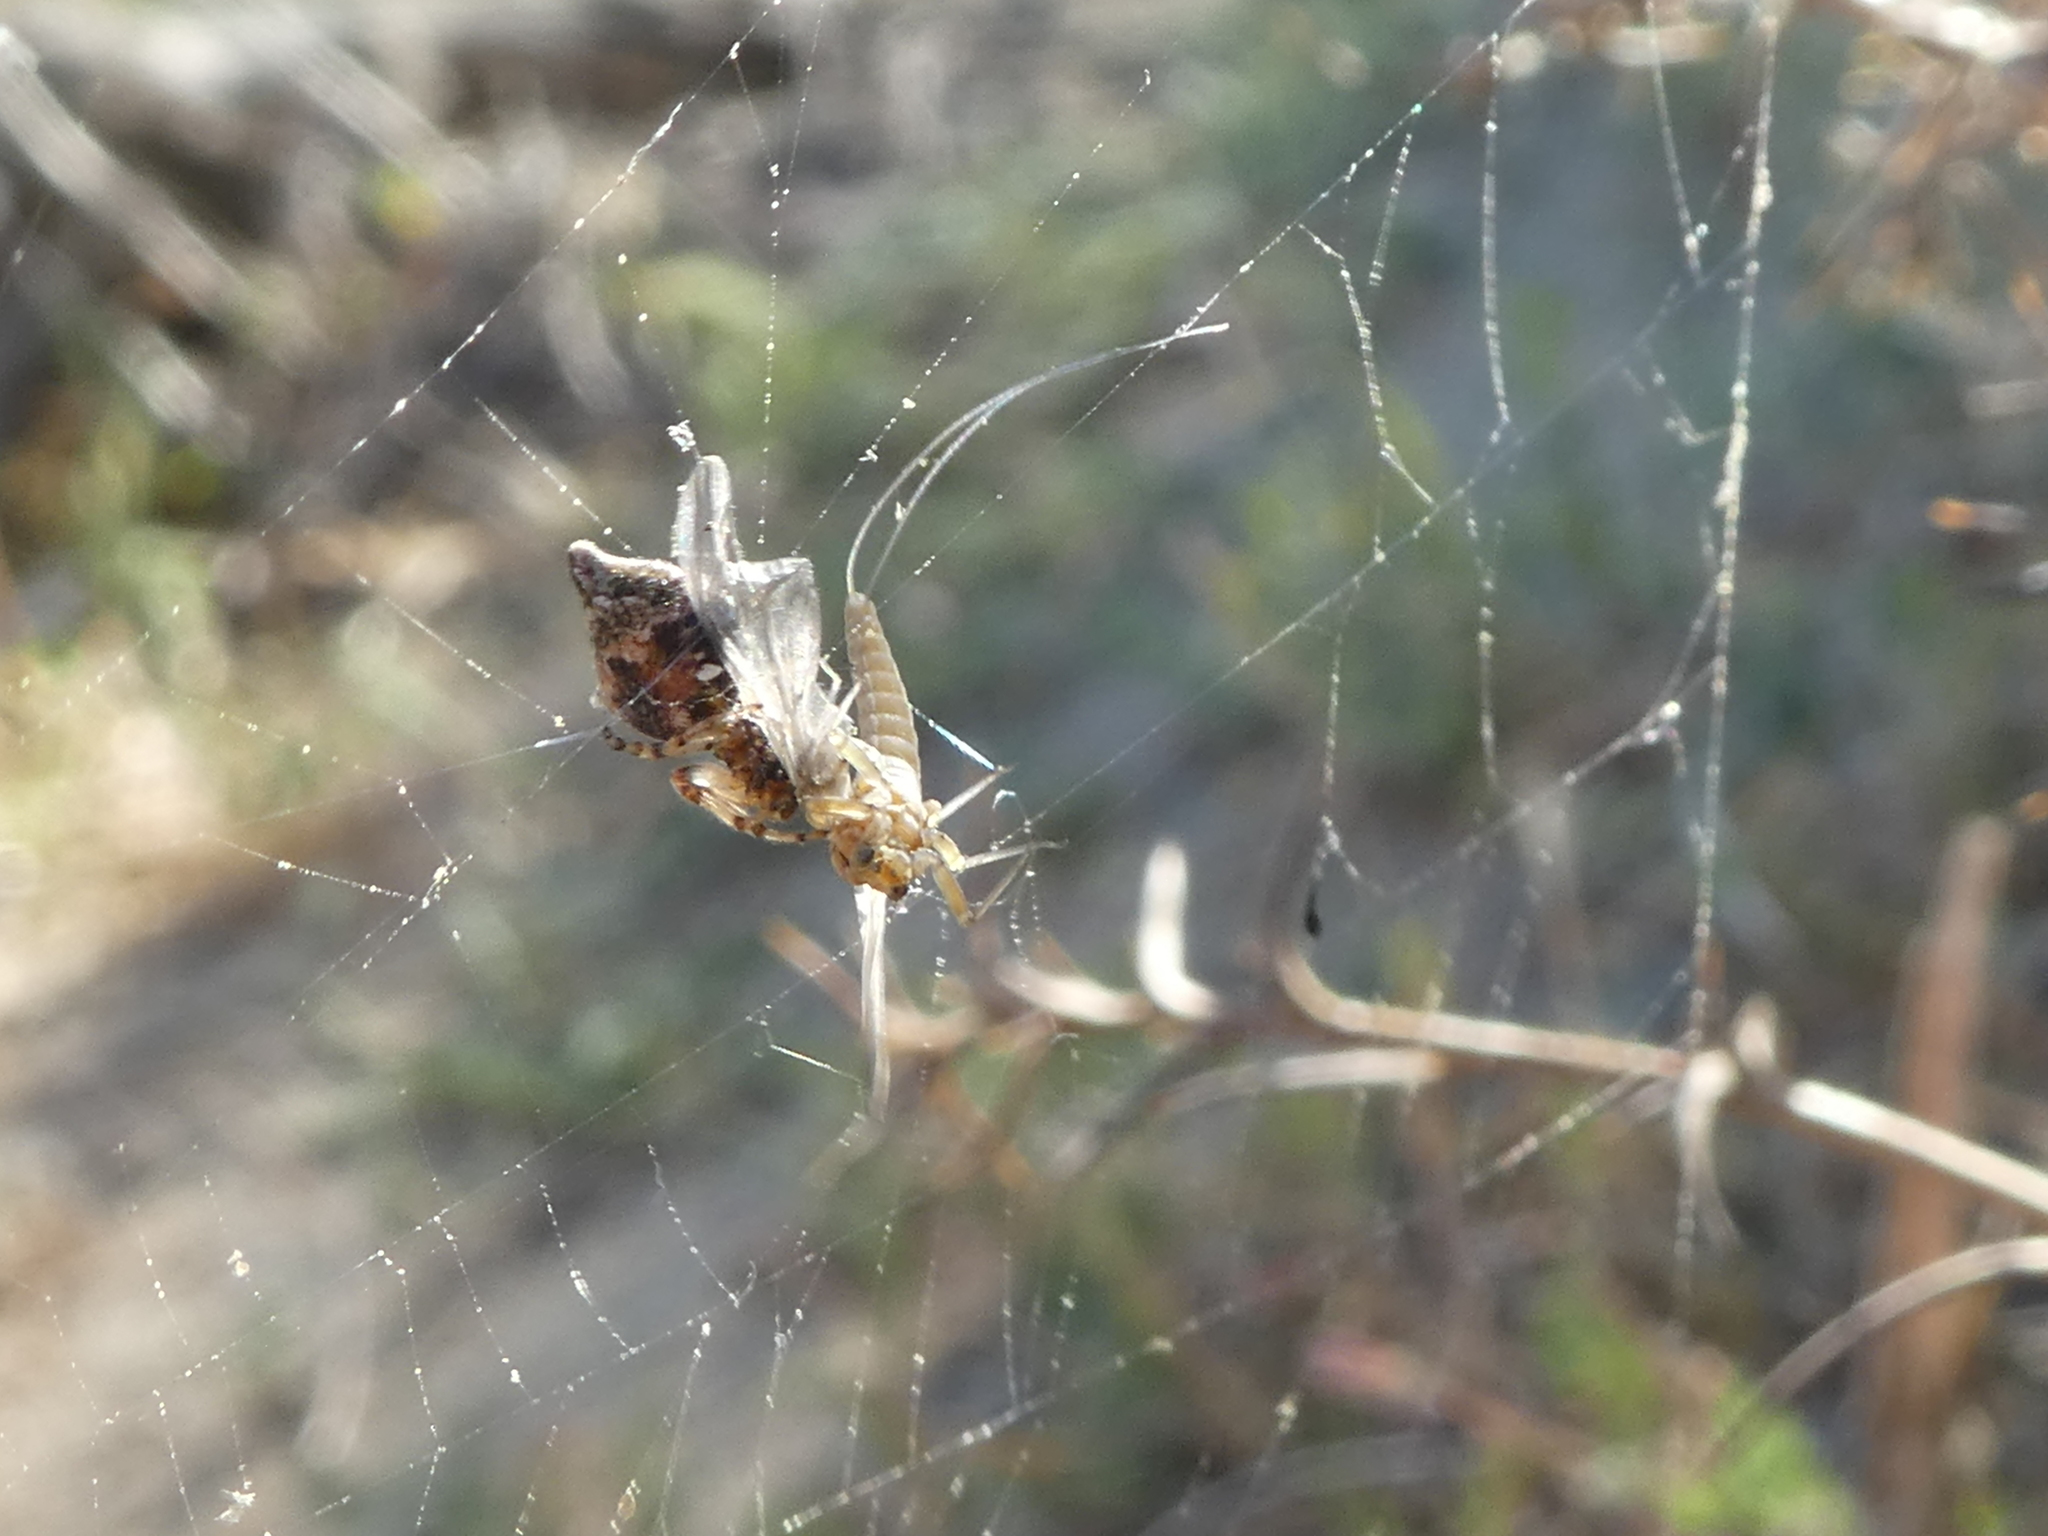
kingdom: Animalia
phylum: Arthropoda
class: Arachnida
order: Araneae
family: Araneidae
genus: Cyclosa
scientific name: Cyclosa turbinata
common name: Orb weavers
